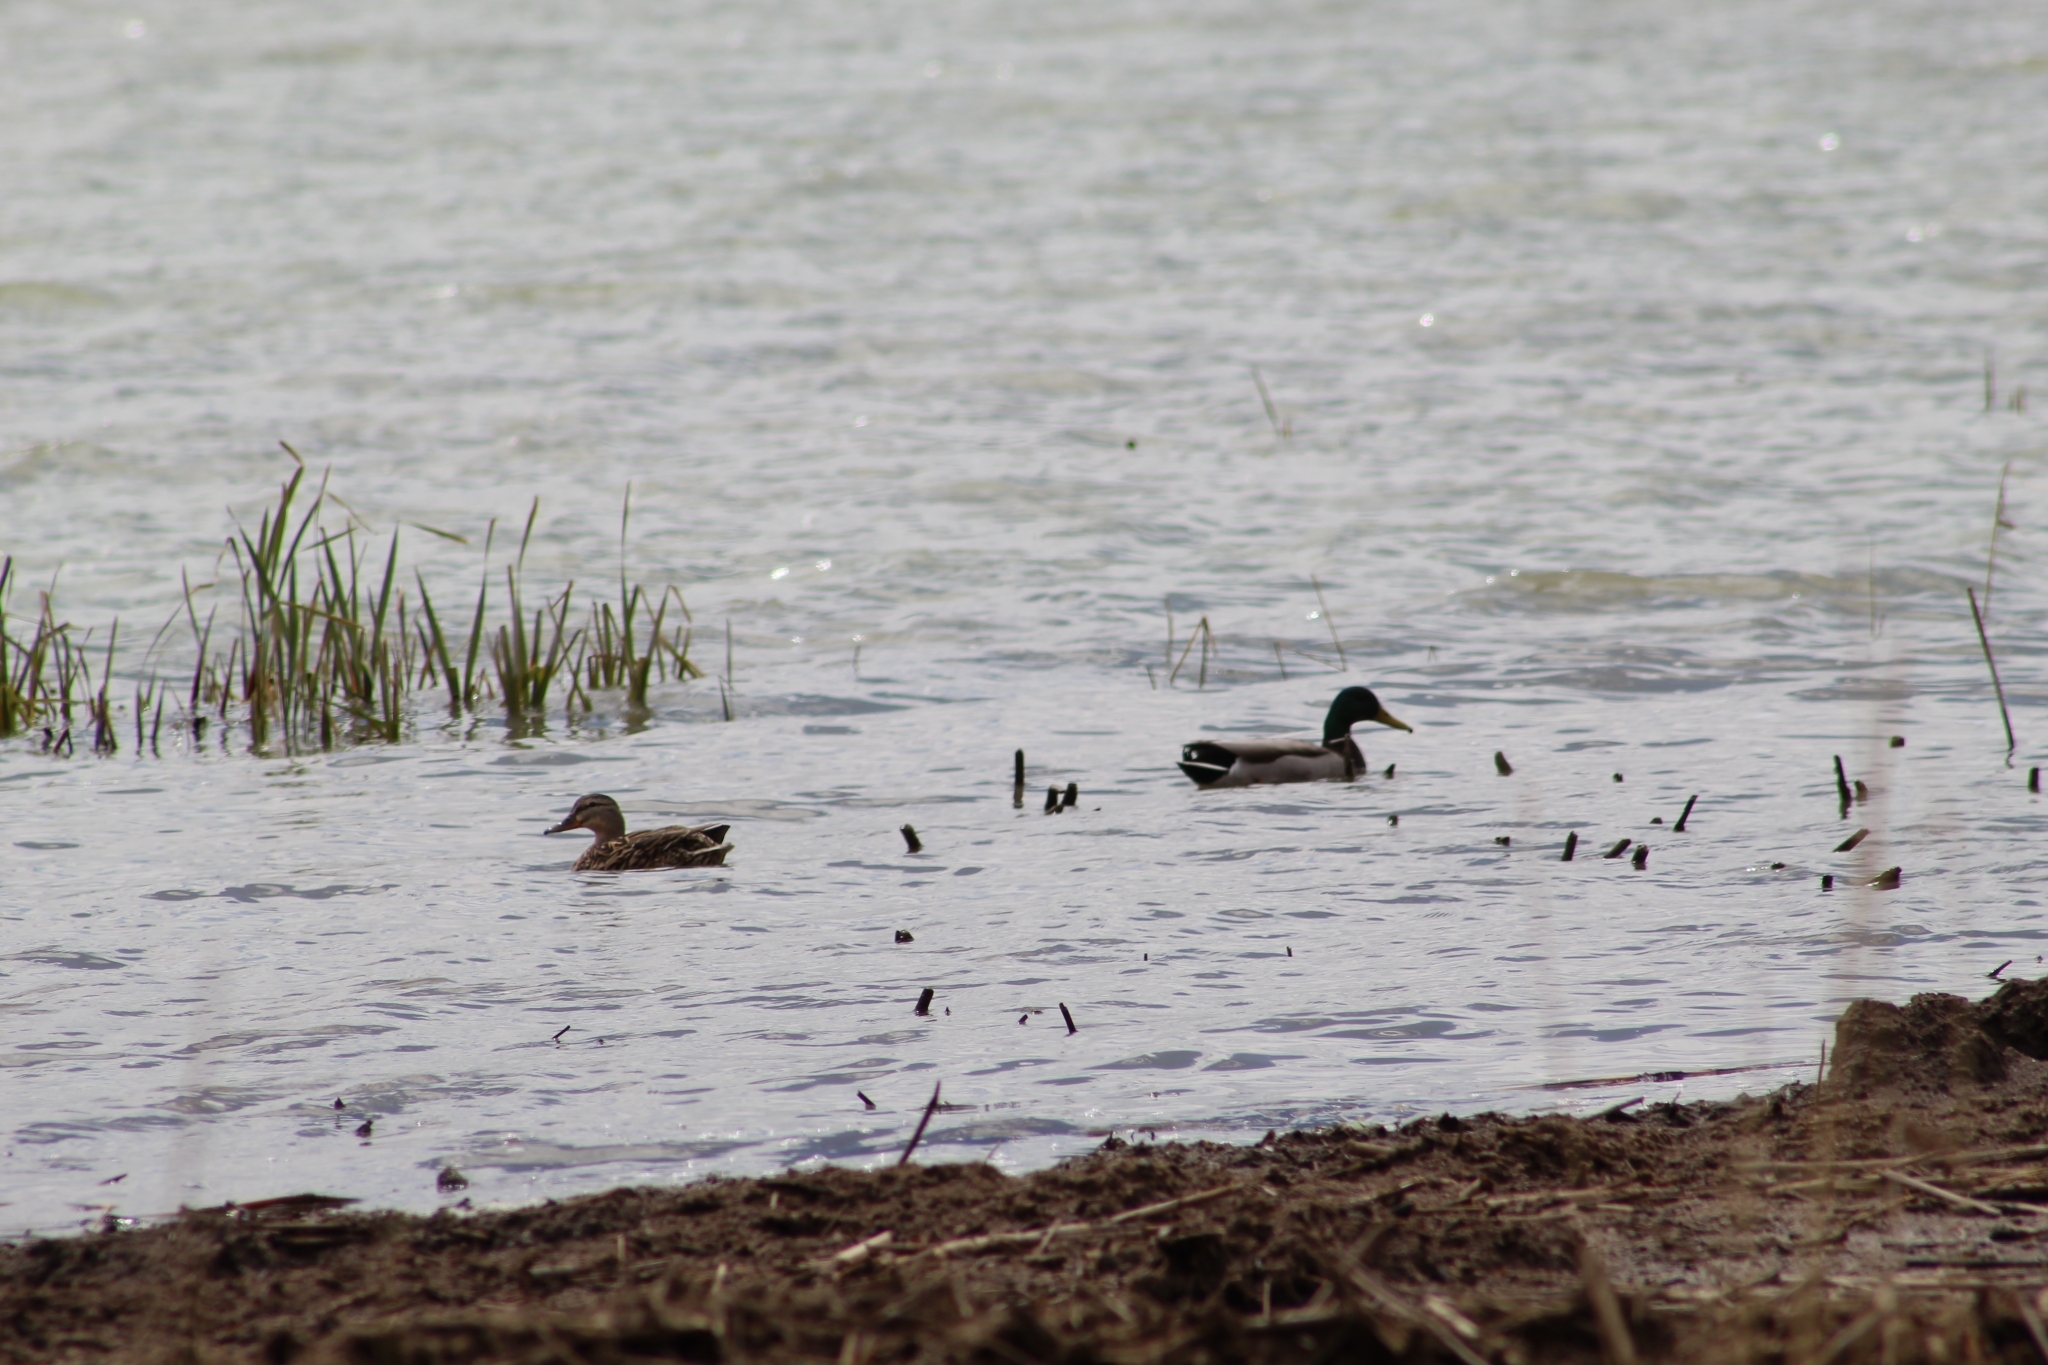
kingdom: Animalia
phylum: Chordata
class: Aves
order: Anseriformes
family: Anatidae
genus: Anas
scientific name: Anas platyrhynchos
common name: Mallard
